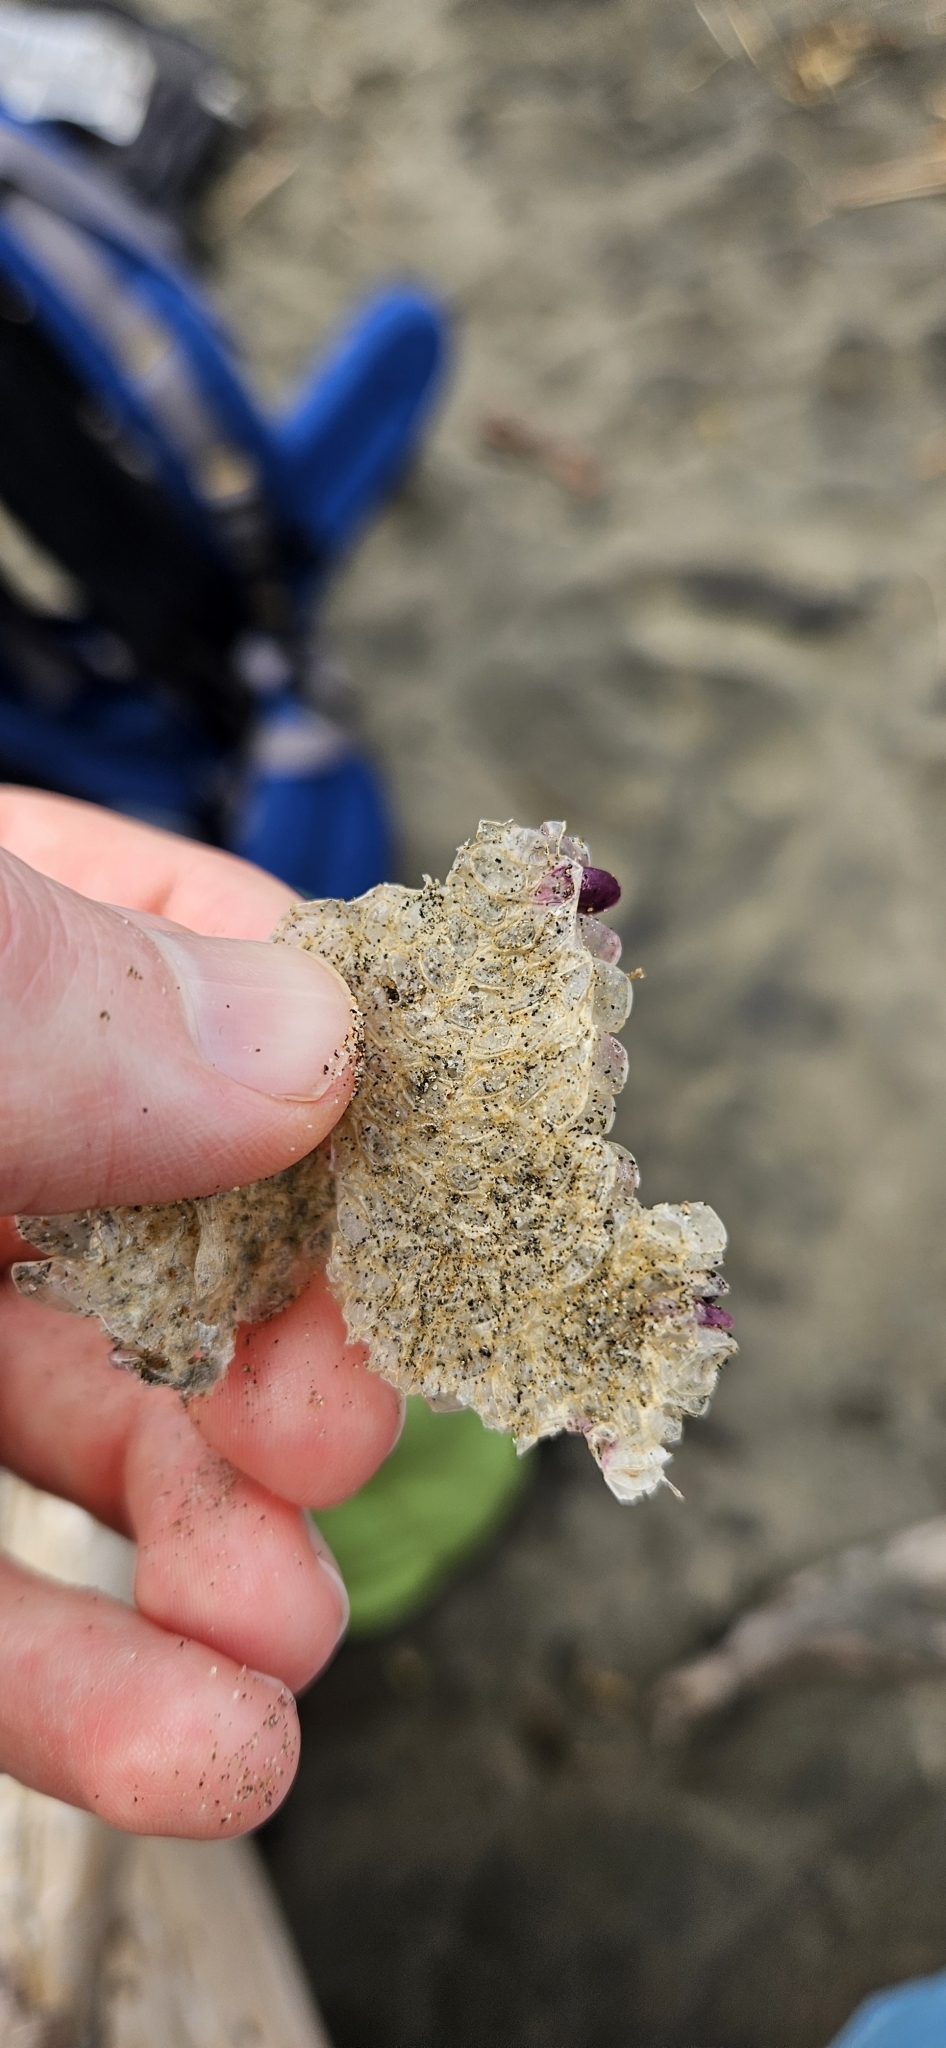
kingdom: Animalia
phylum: Mollusca
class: Gastropoda
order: Neogastropoda
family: Muricidae
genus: Dicathais
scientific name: Dicathais orbita
